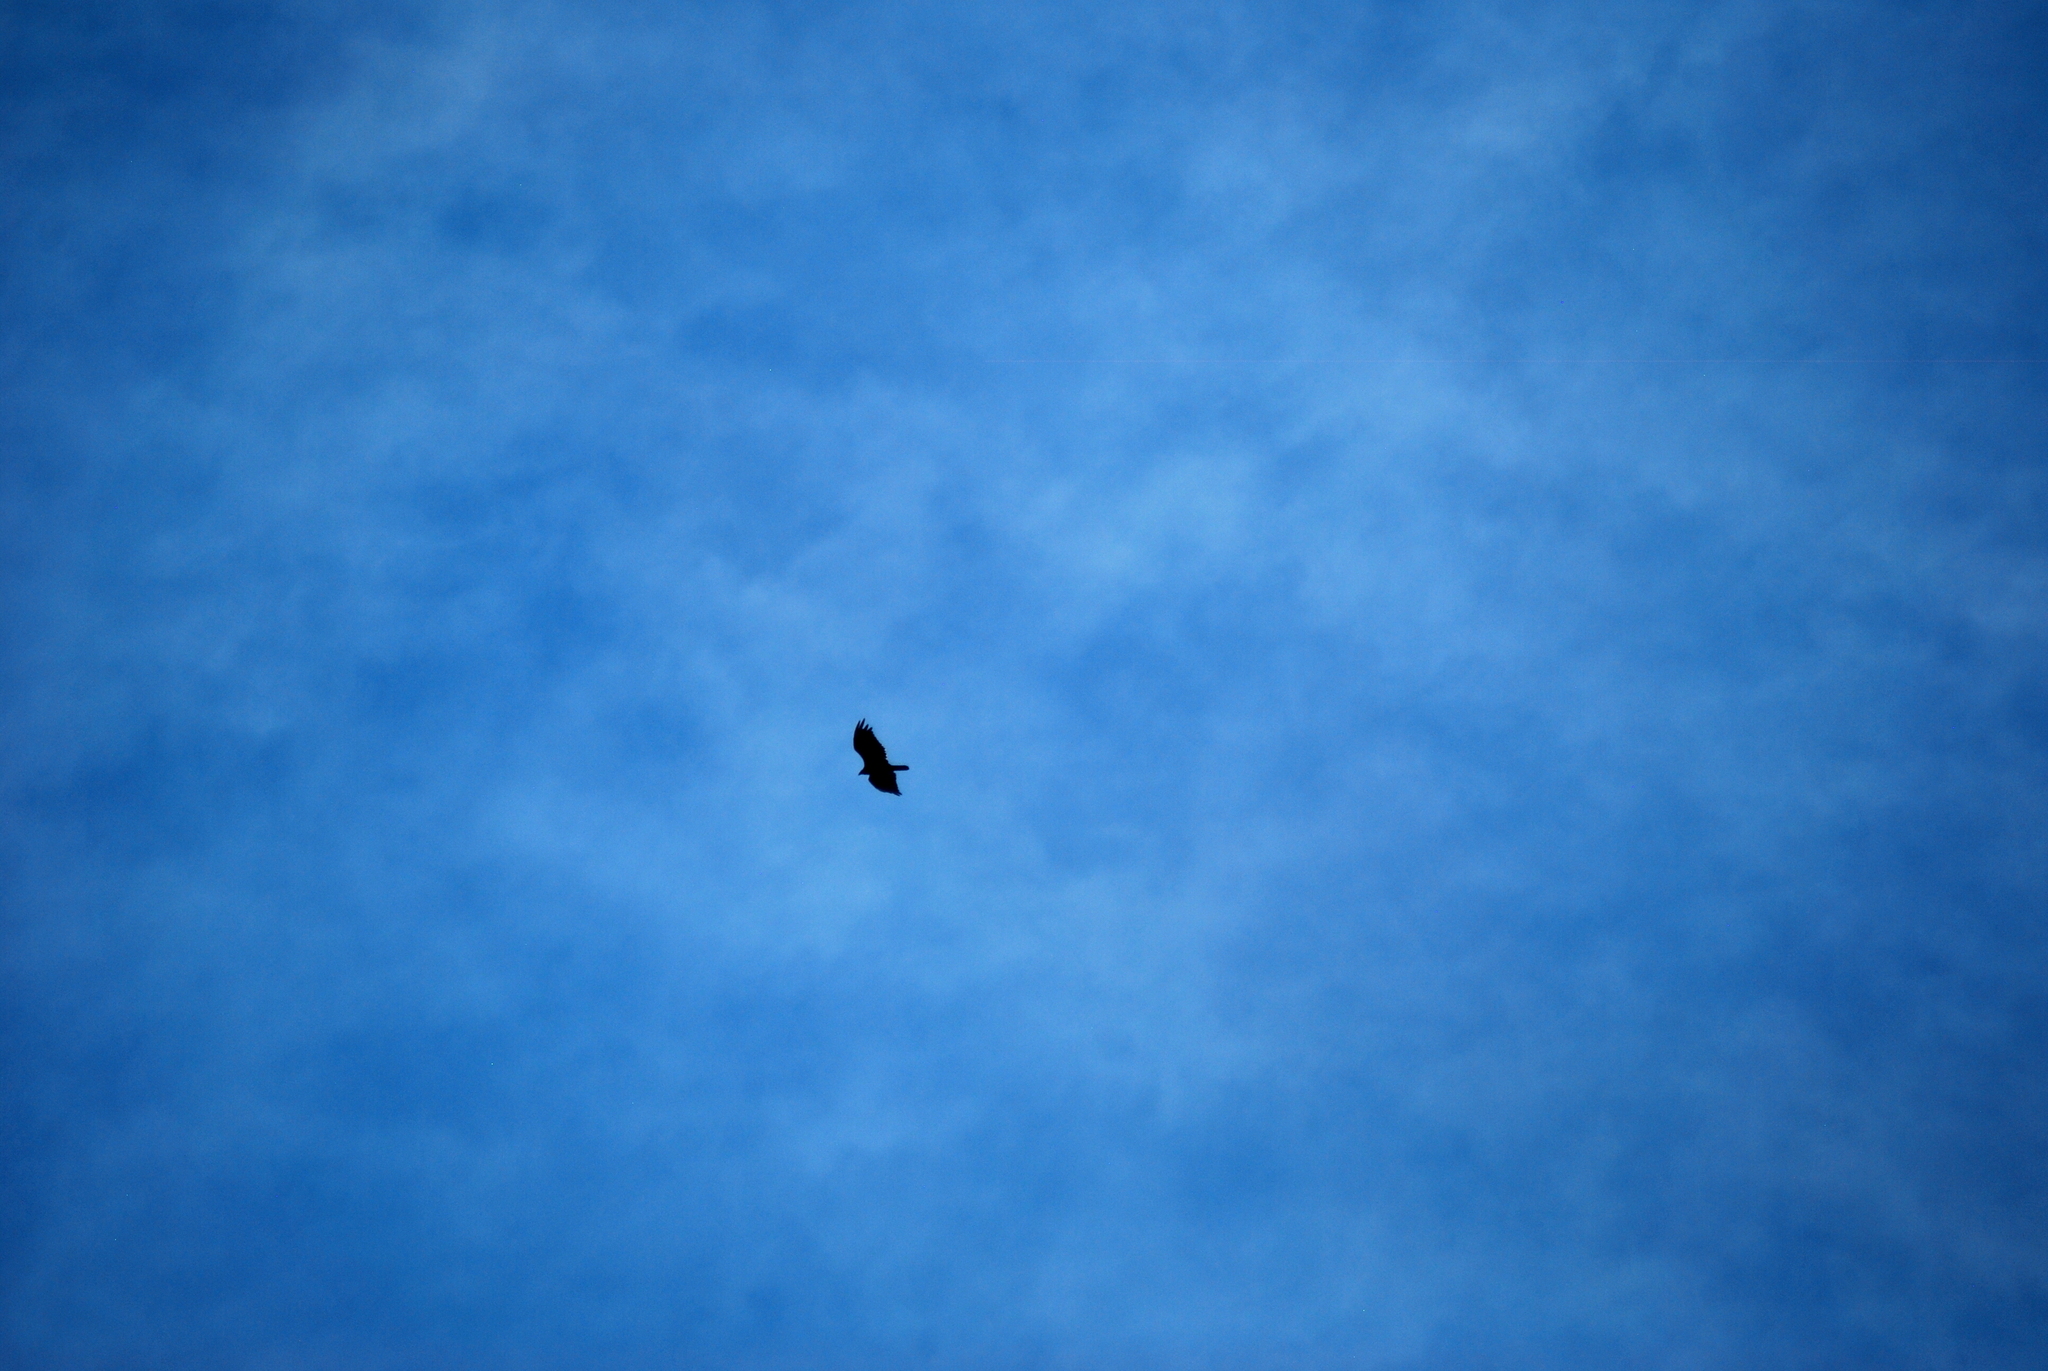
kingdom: Animalia
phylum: Chordata
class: Aves
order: Accipitriformes
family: Cathartidae
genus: Cathartes
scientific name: Cathartes aura
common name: Turkey vulture
